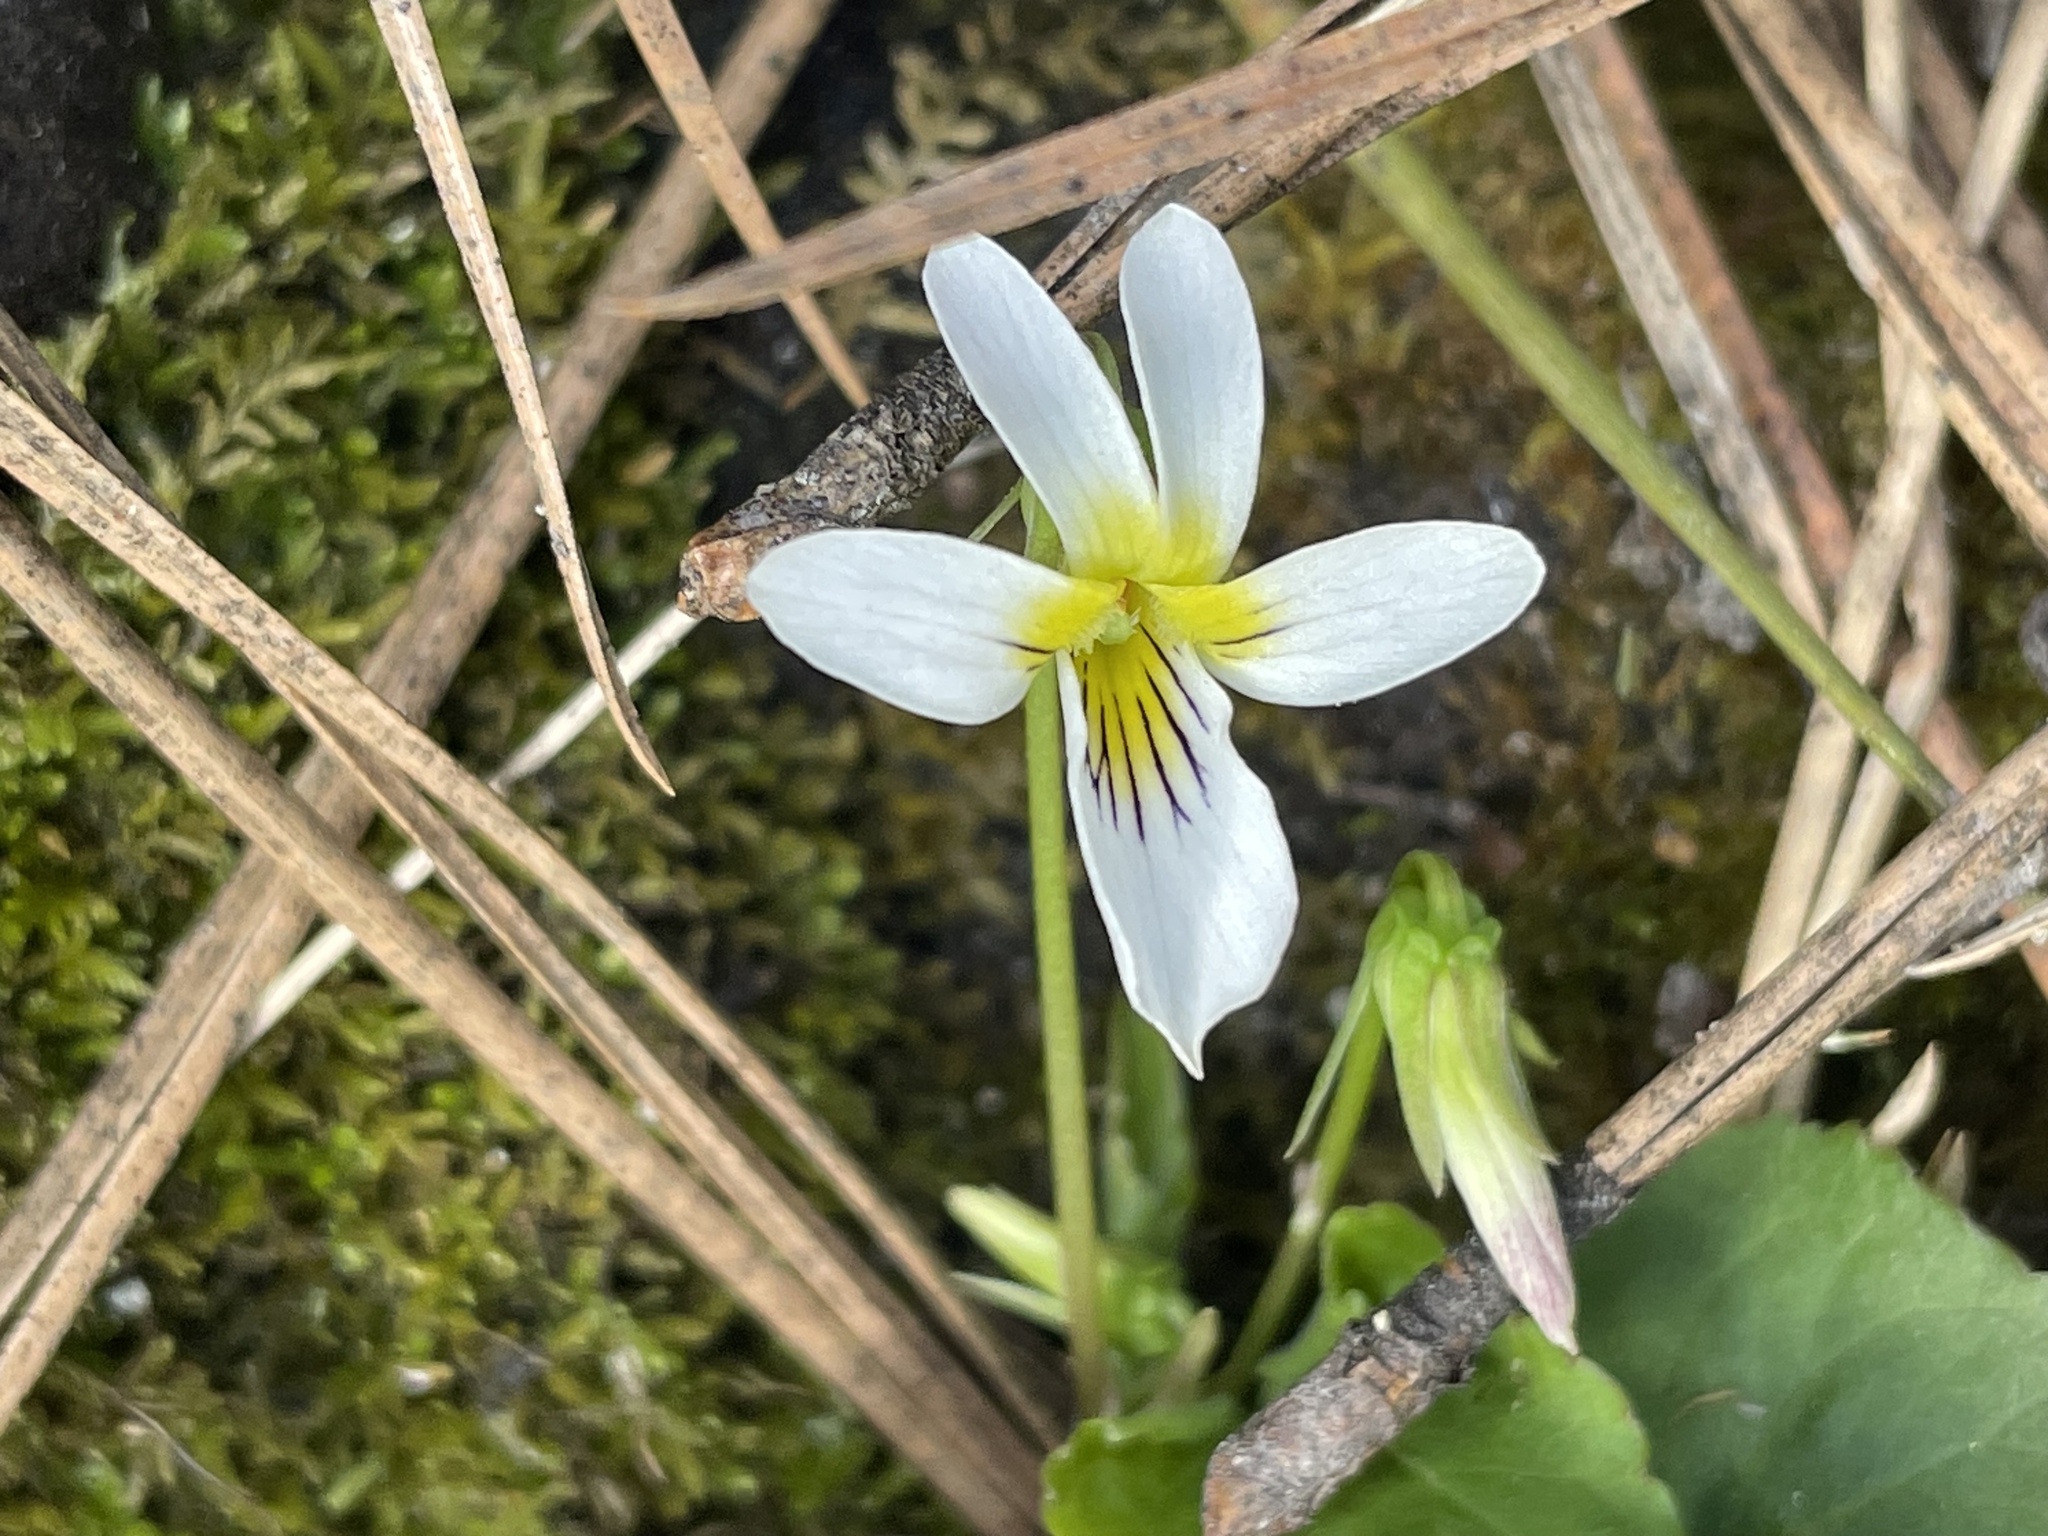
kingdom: Plantae
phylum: Tracheophyta
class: Magnoliopsida
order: Malpighiales
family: Violaceae
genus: Viola
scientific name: Viola canadensis
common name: Canada violet
